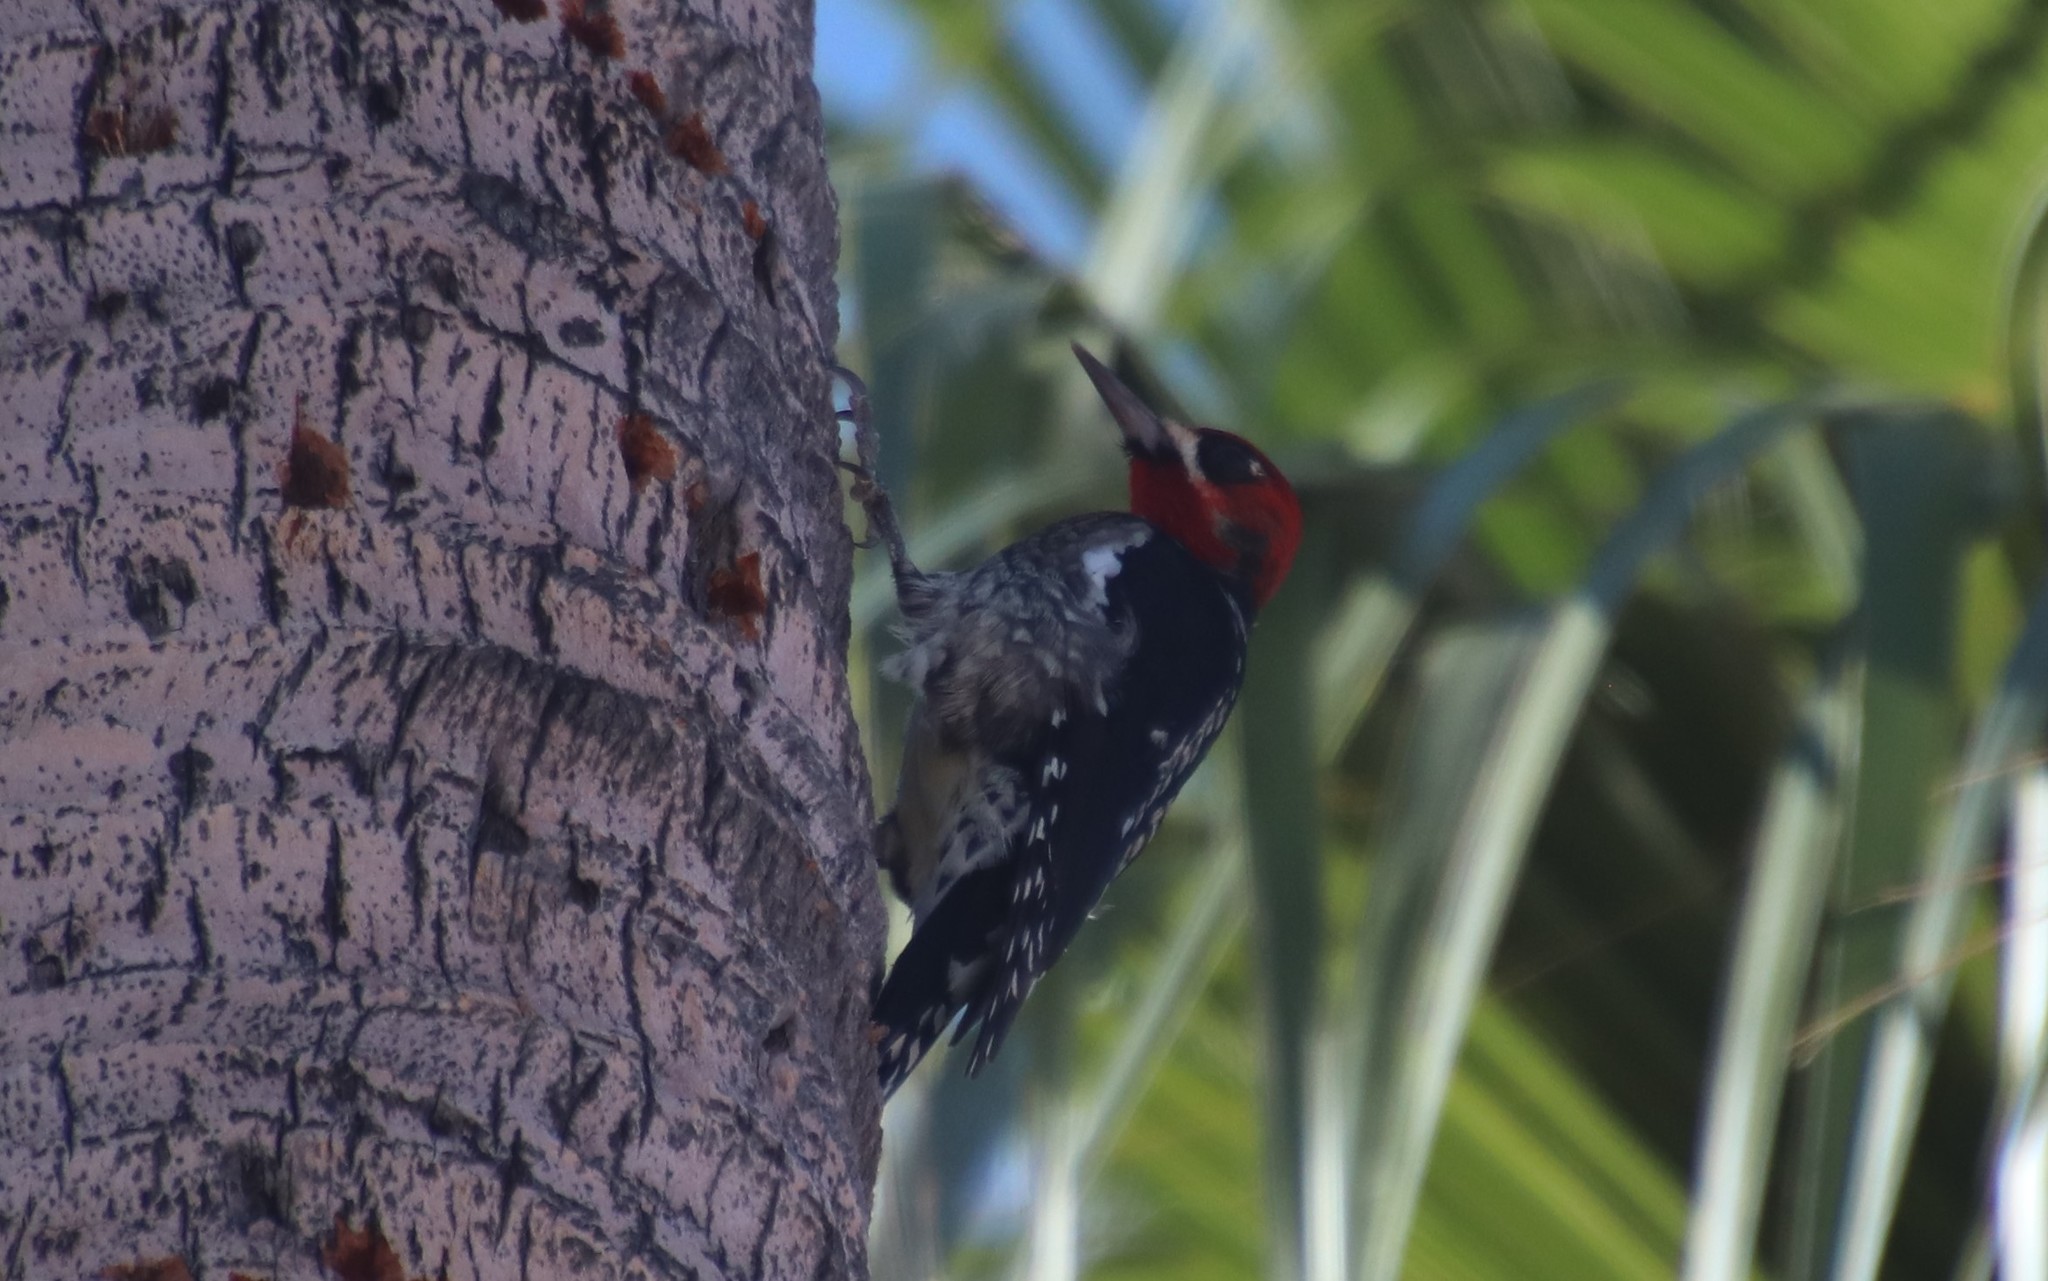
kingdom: Animalia
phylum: Chordata
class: Aves
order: Piciformes
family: Picidae
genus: Sphyrapicus
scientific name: Sphyrapicus ruber
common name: Red-breasted sapsucker
